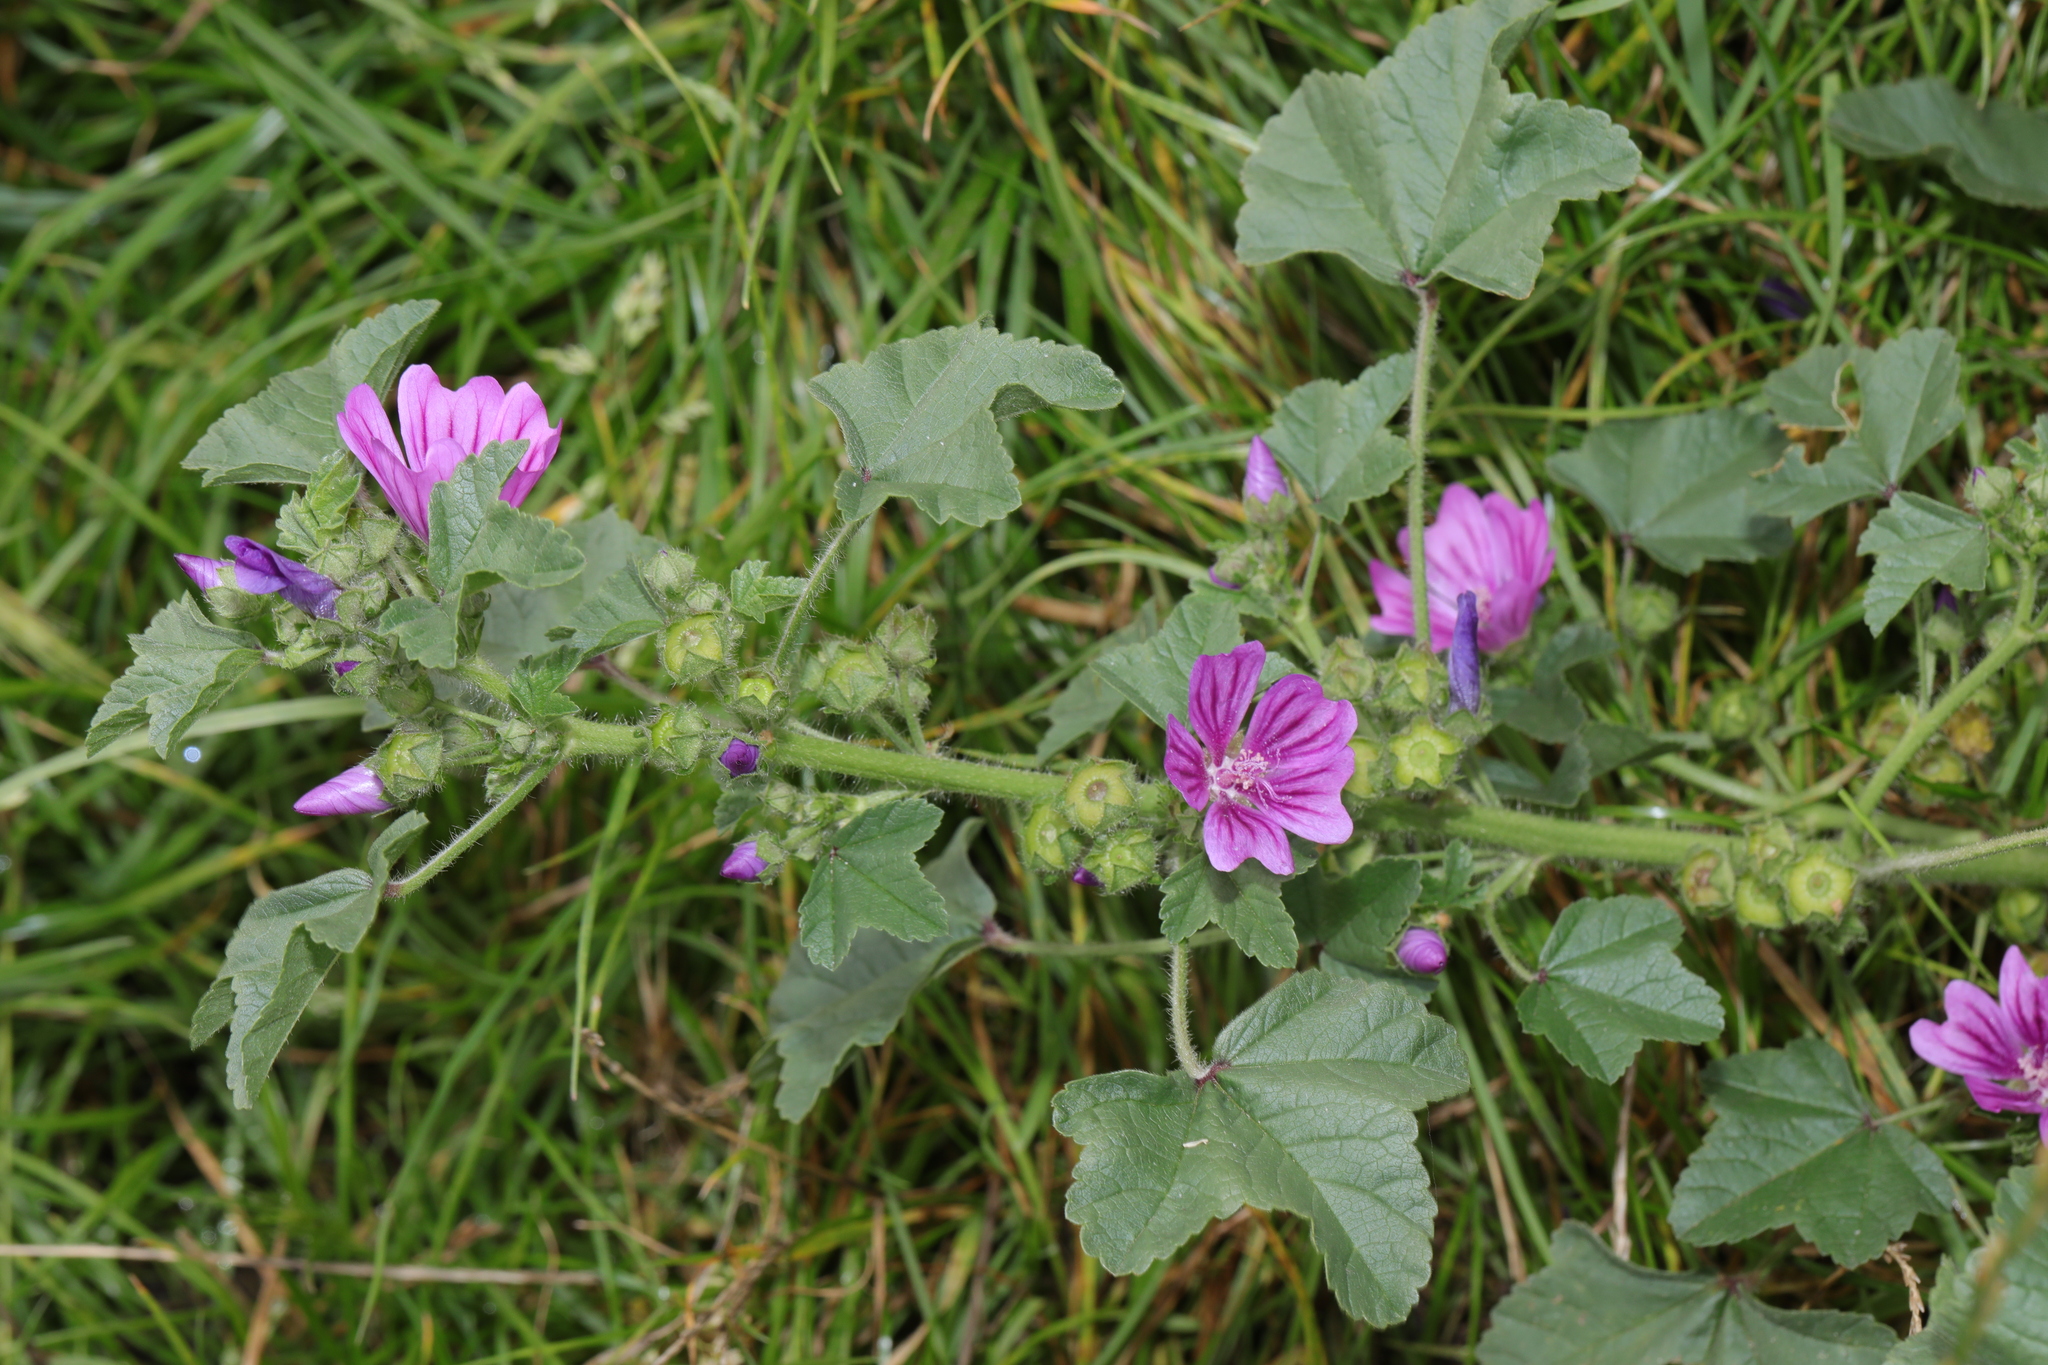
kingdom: Plantae
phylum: Tracheophyta
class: Magnoliopsida
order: Malvales
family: Malvaceae
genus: Malva
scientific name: Malva sylvestris
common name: Common mallow
